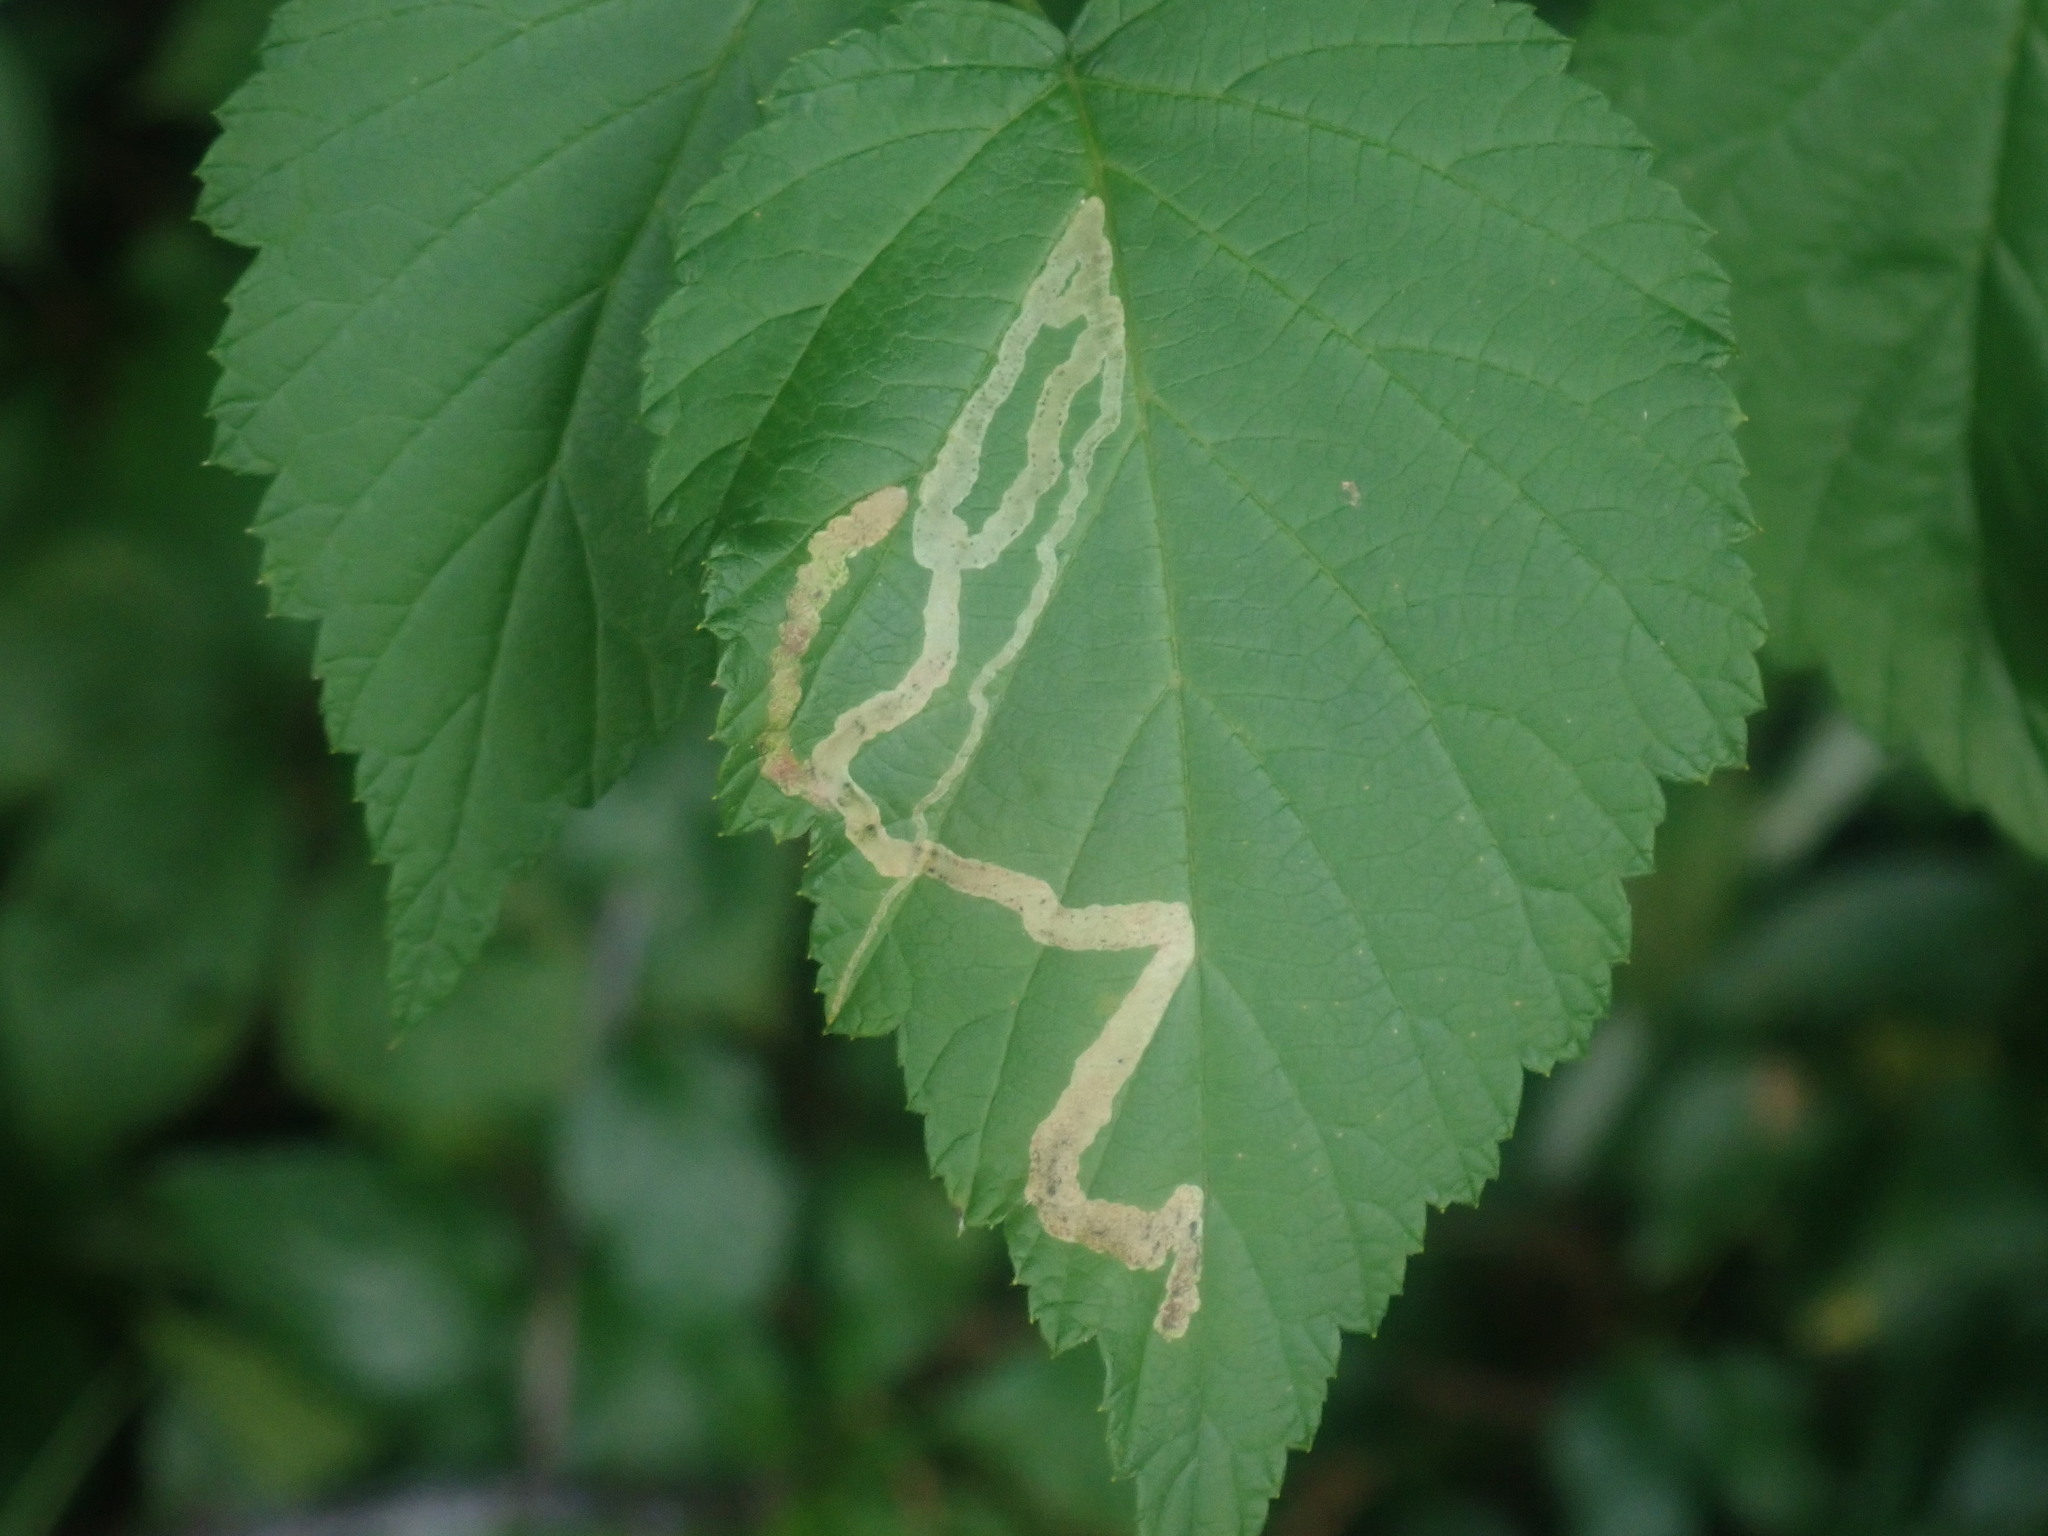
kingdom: Animalia
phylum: Arthropoda
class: Insecta
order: Diptera
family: Agromyzidae
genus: Agromyza
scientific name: Agromyza vockerothi
